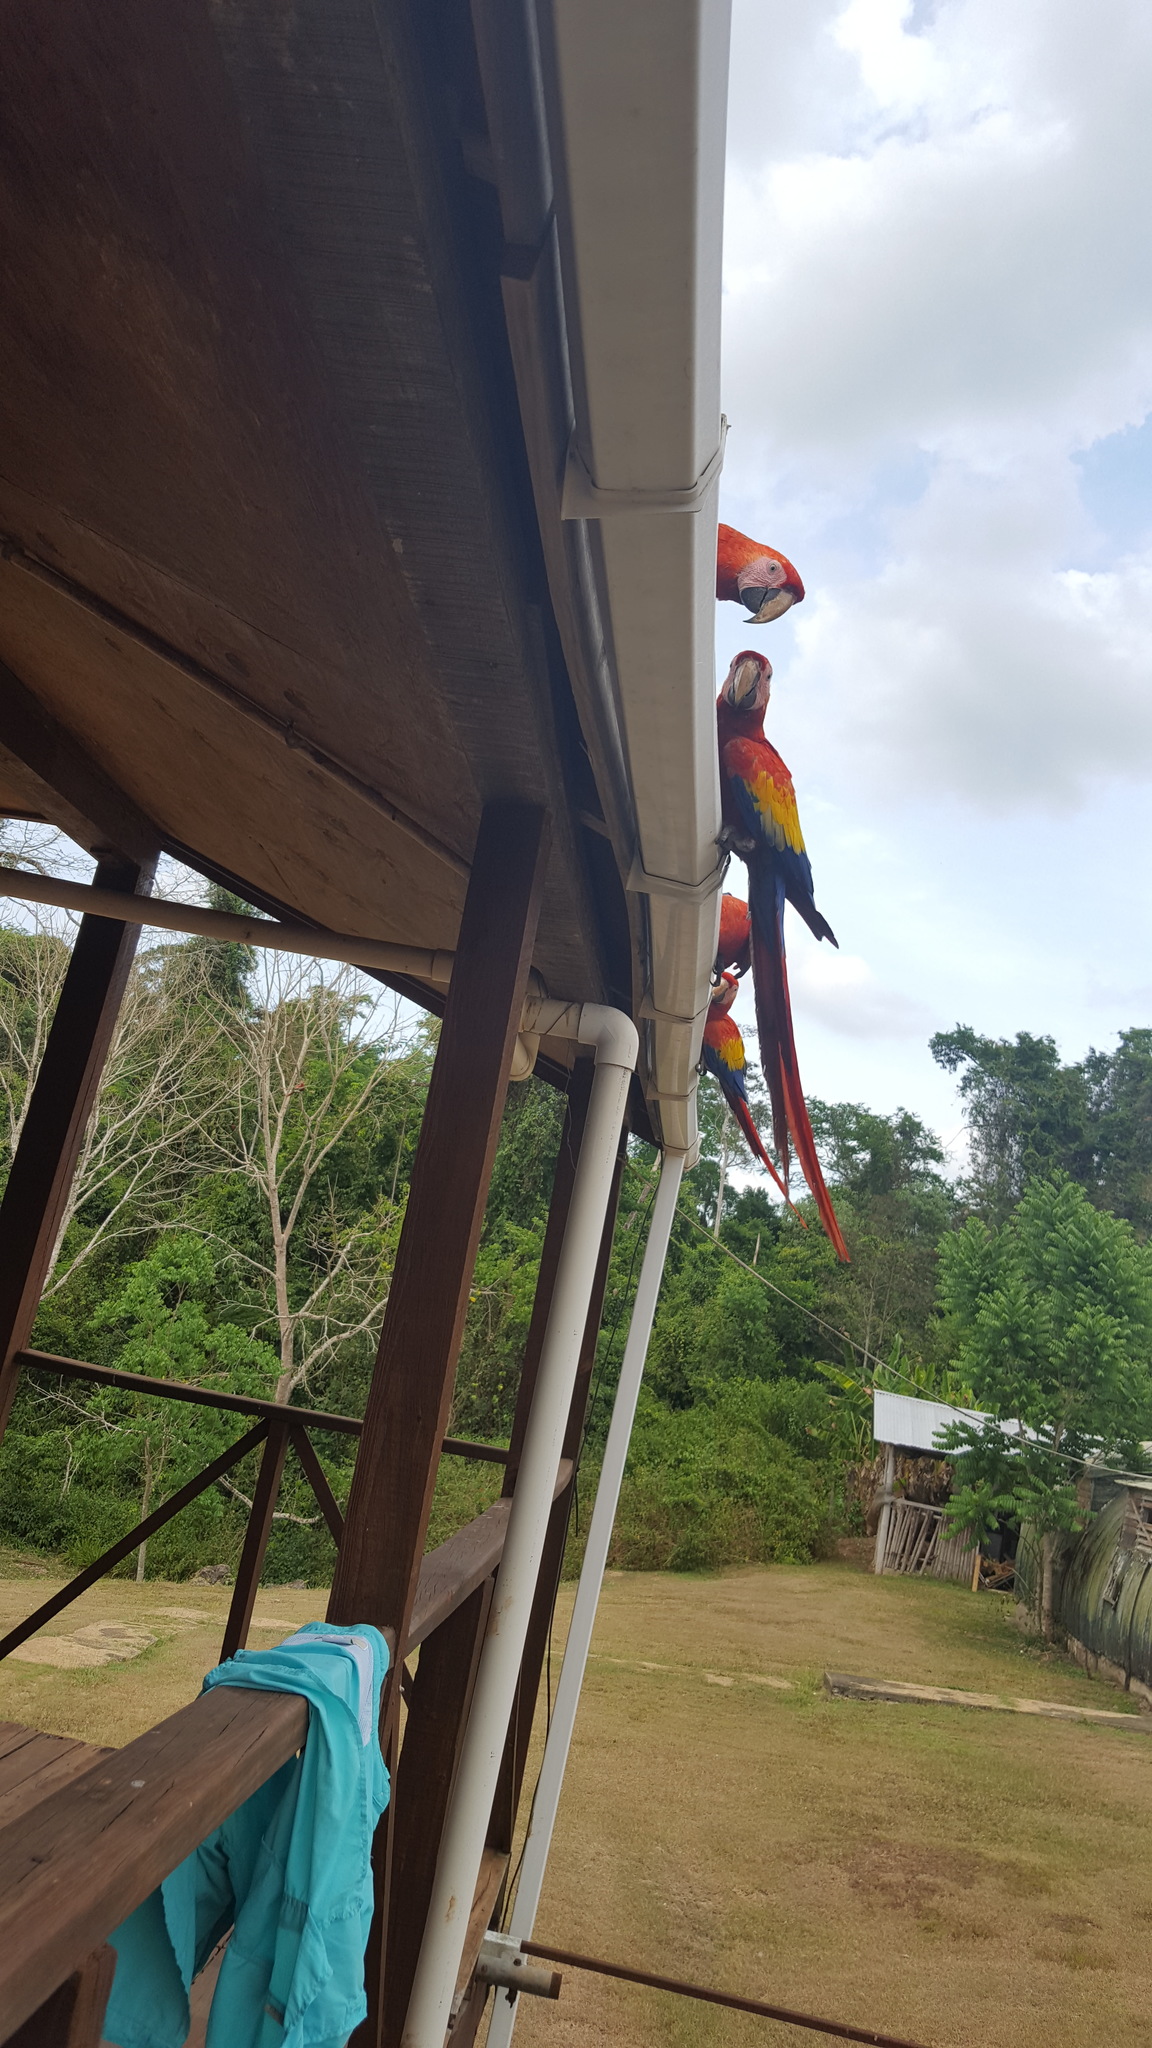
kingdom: Animalia
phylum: Chordata
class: Aves
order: Psittaciformes
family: Psittacidae
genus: Ara
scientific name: Ara macao
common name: Scarlet macaw
